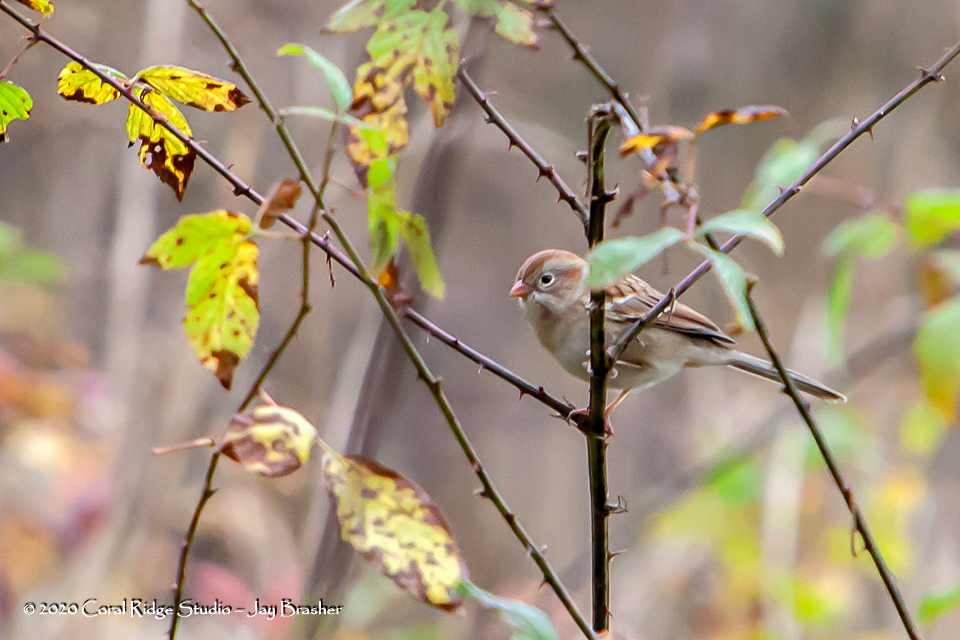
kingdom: Animalia
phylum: Chordata
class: Aves
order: Passeriformes
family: Passerellidae
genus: Spizella
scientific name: Spizella pusilla
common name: Field sparrow
